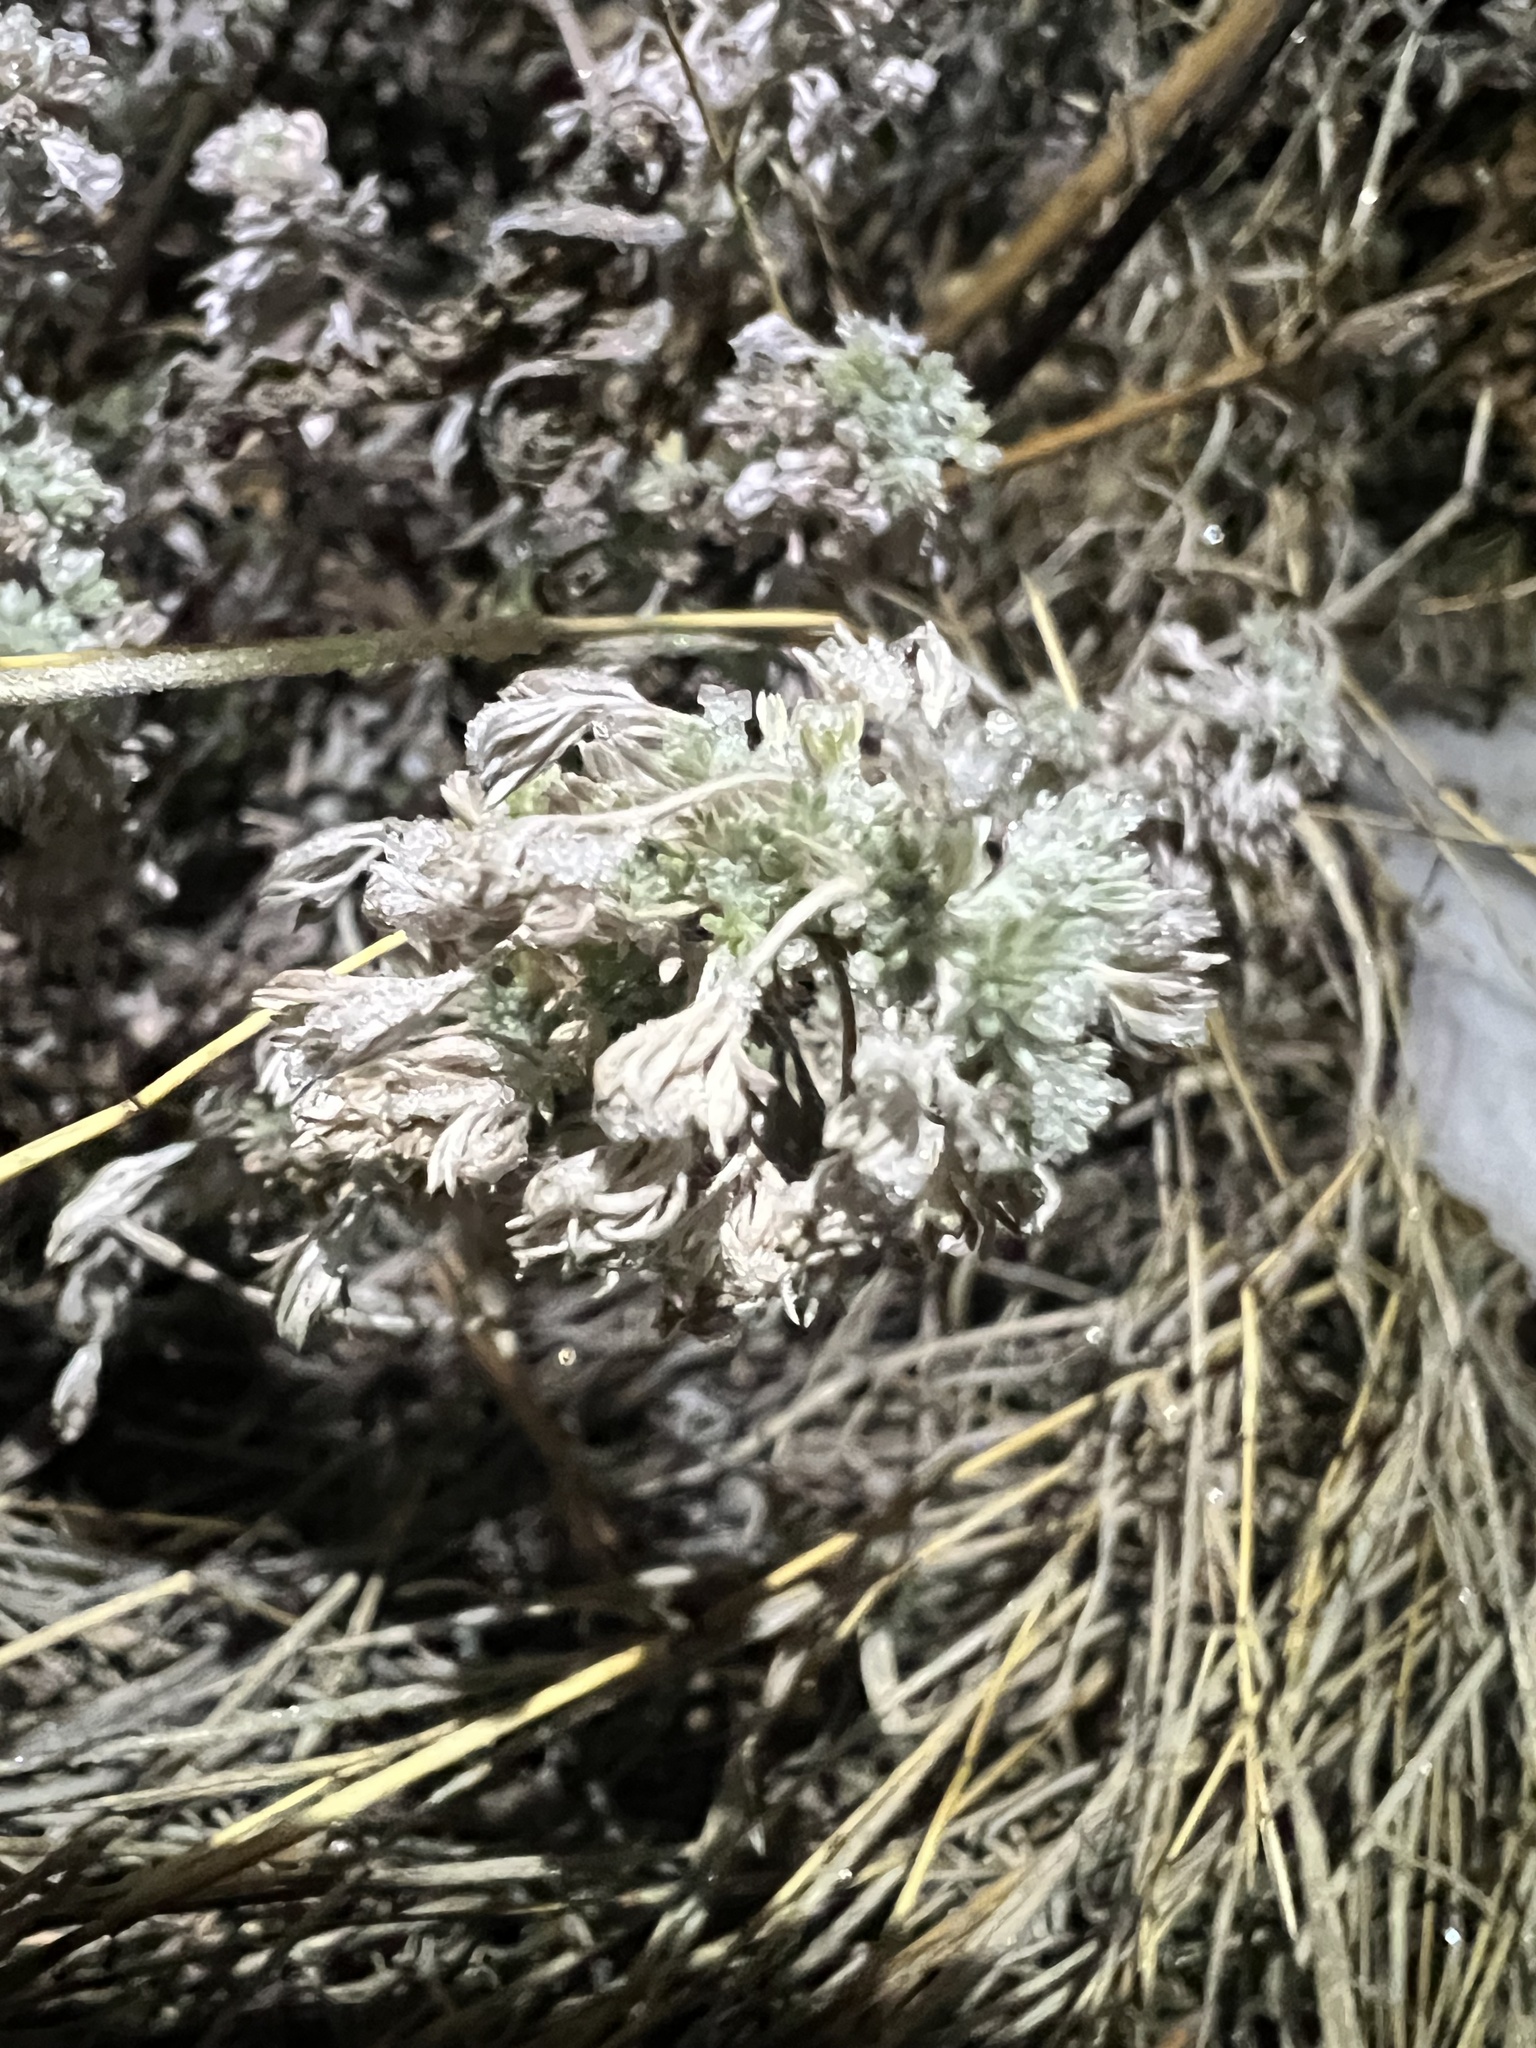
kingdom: Plantae
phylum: Tracheophyta
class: Magnoliopsida
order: Asterales
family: Asteraceae
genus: Artemisia
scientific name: Artemisia frigida
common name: Prairie sagewort
